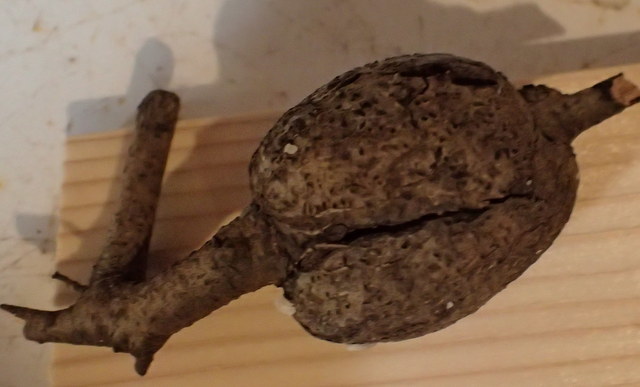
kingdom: Animalia
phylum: Arthropoda
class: Insecta
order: Hymenoptera
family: Cynipidae
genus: Callirhytis
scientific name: Callirhytis
